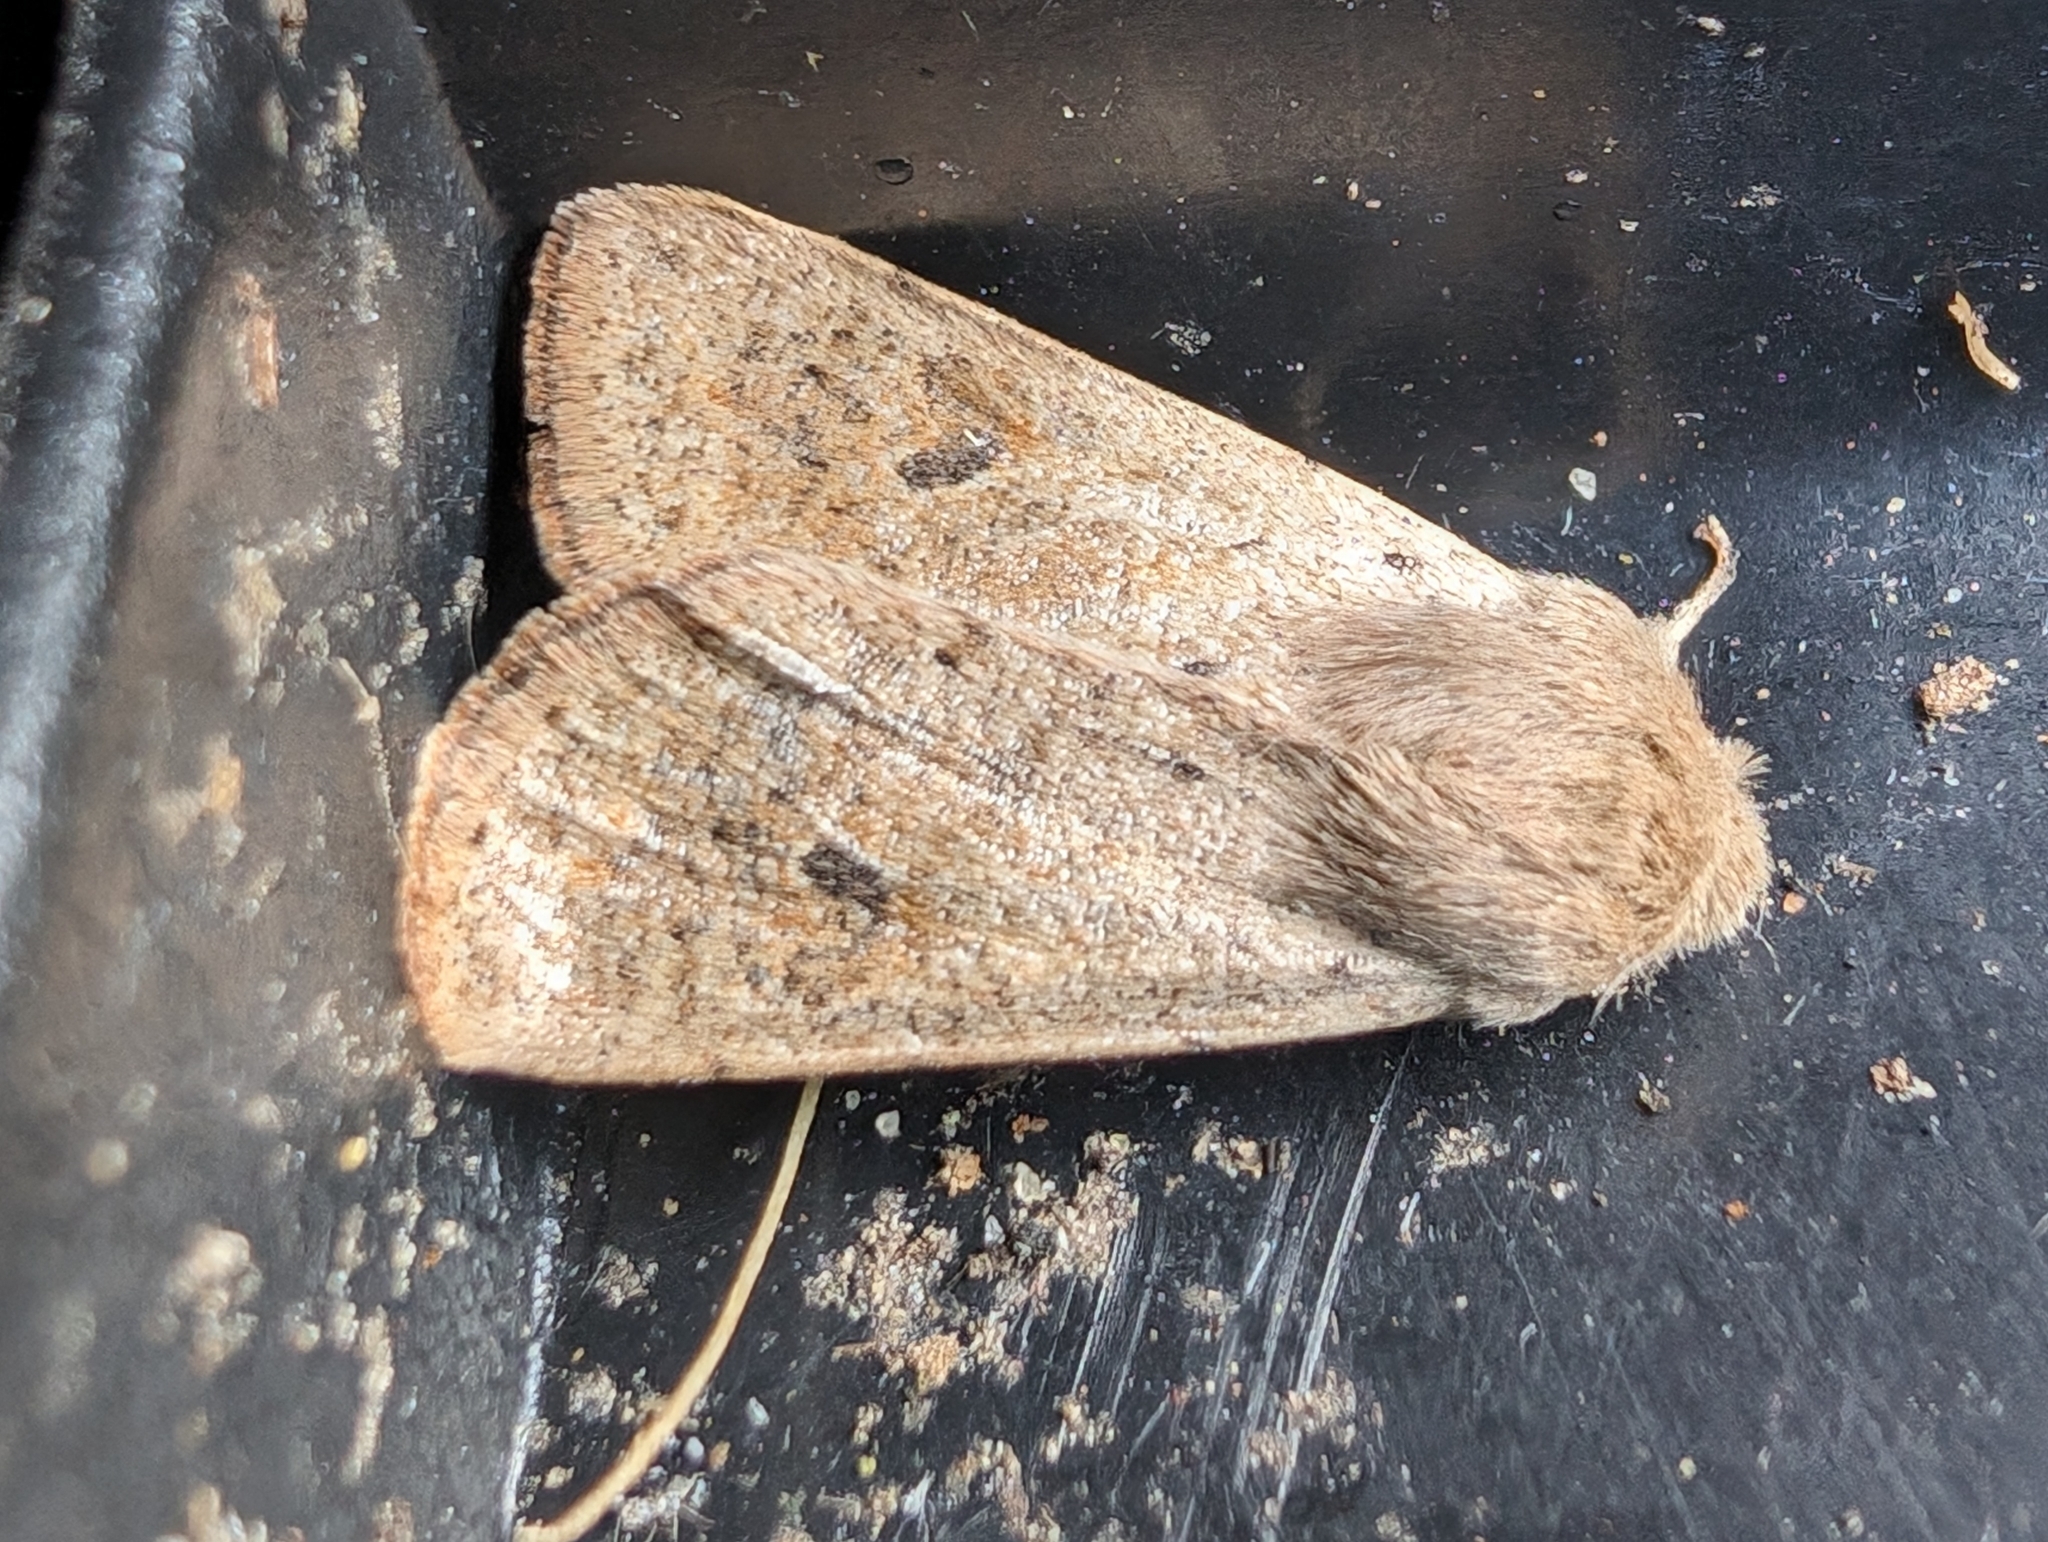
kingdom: Animalia
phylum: Arthropoda
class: Insecta
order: Lepidoptera
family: Noctuidae
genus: Orthosia
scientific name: Orthosia cruda
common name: Small quaker
